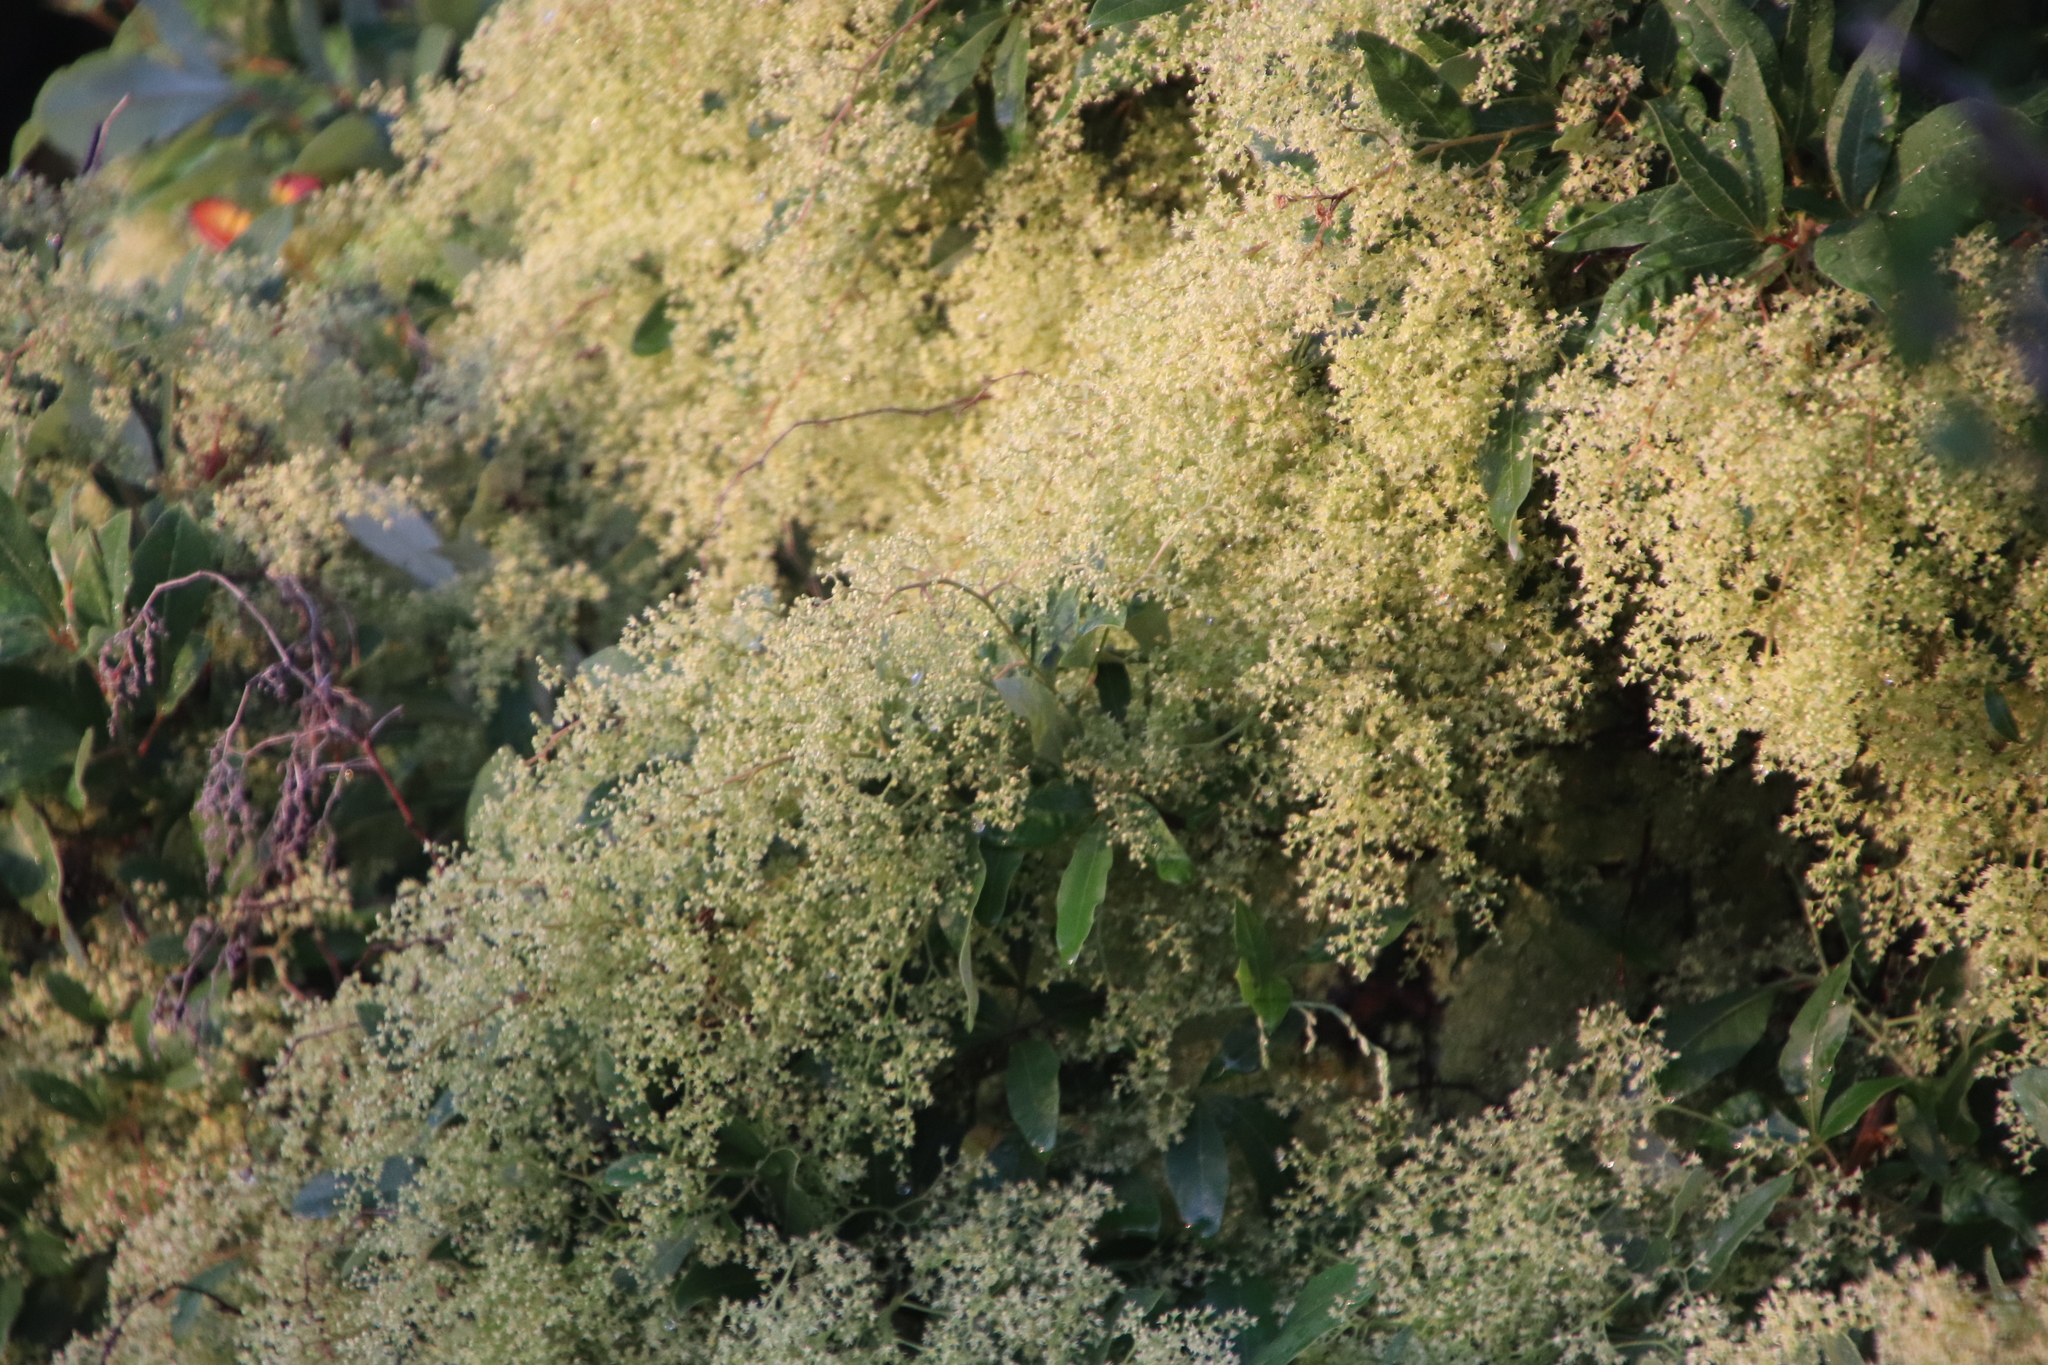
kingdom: Plantae
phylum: Tracheophyta
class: Magnoliopsida
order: Sapindales
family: Anacardiaceae
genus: Searsia
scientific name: Searsia tomentosa
